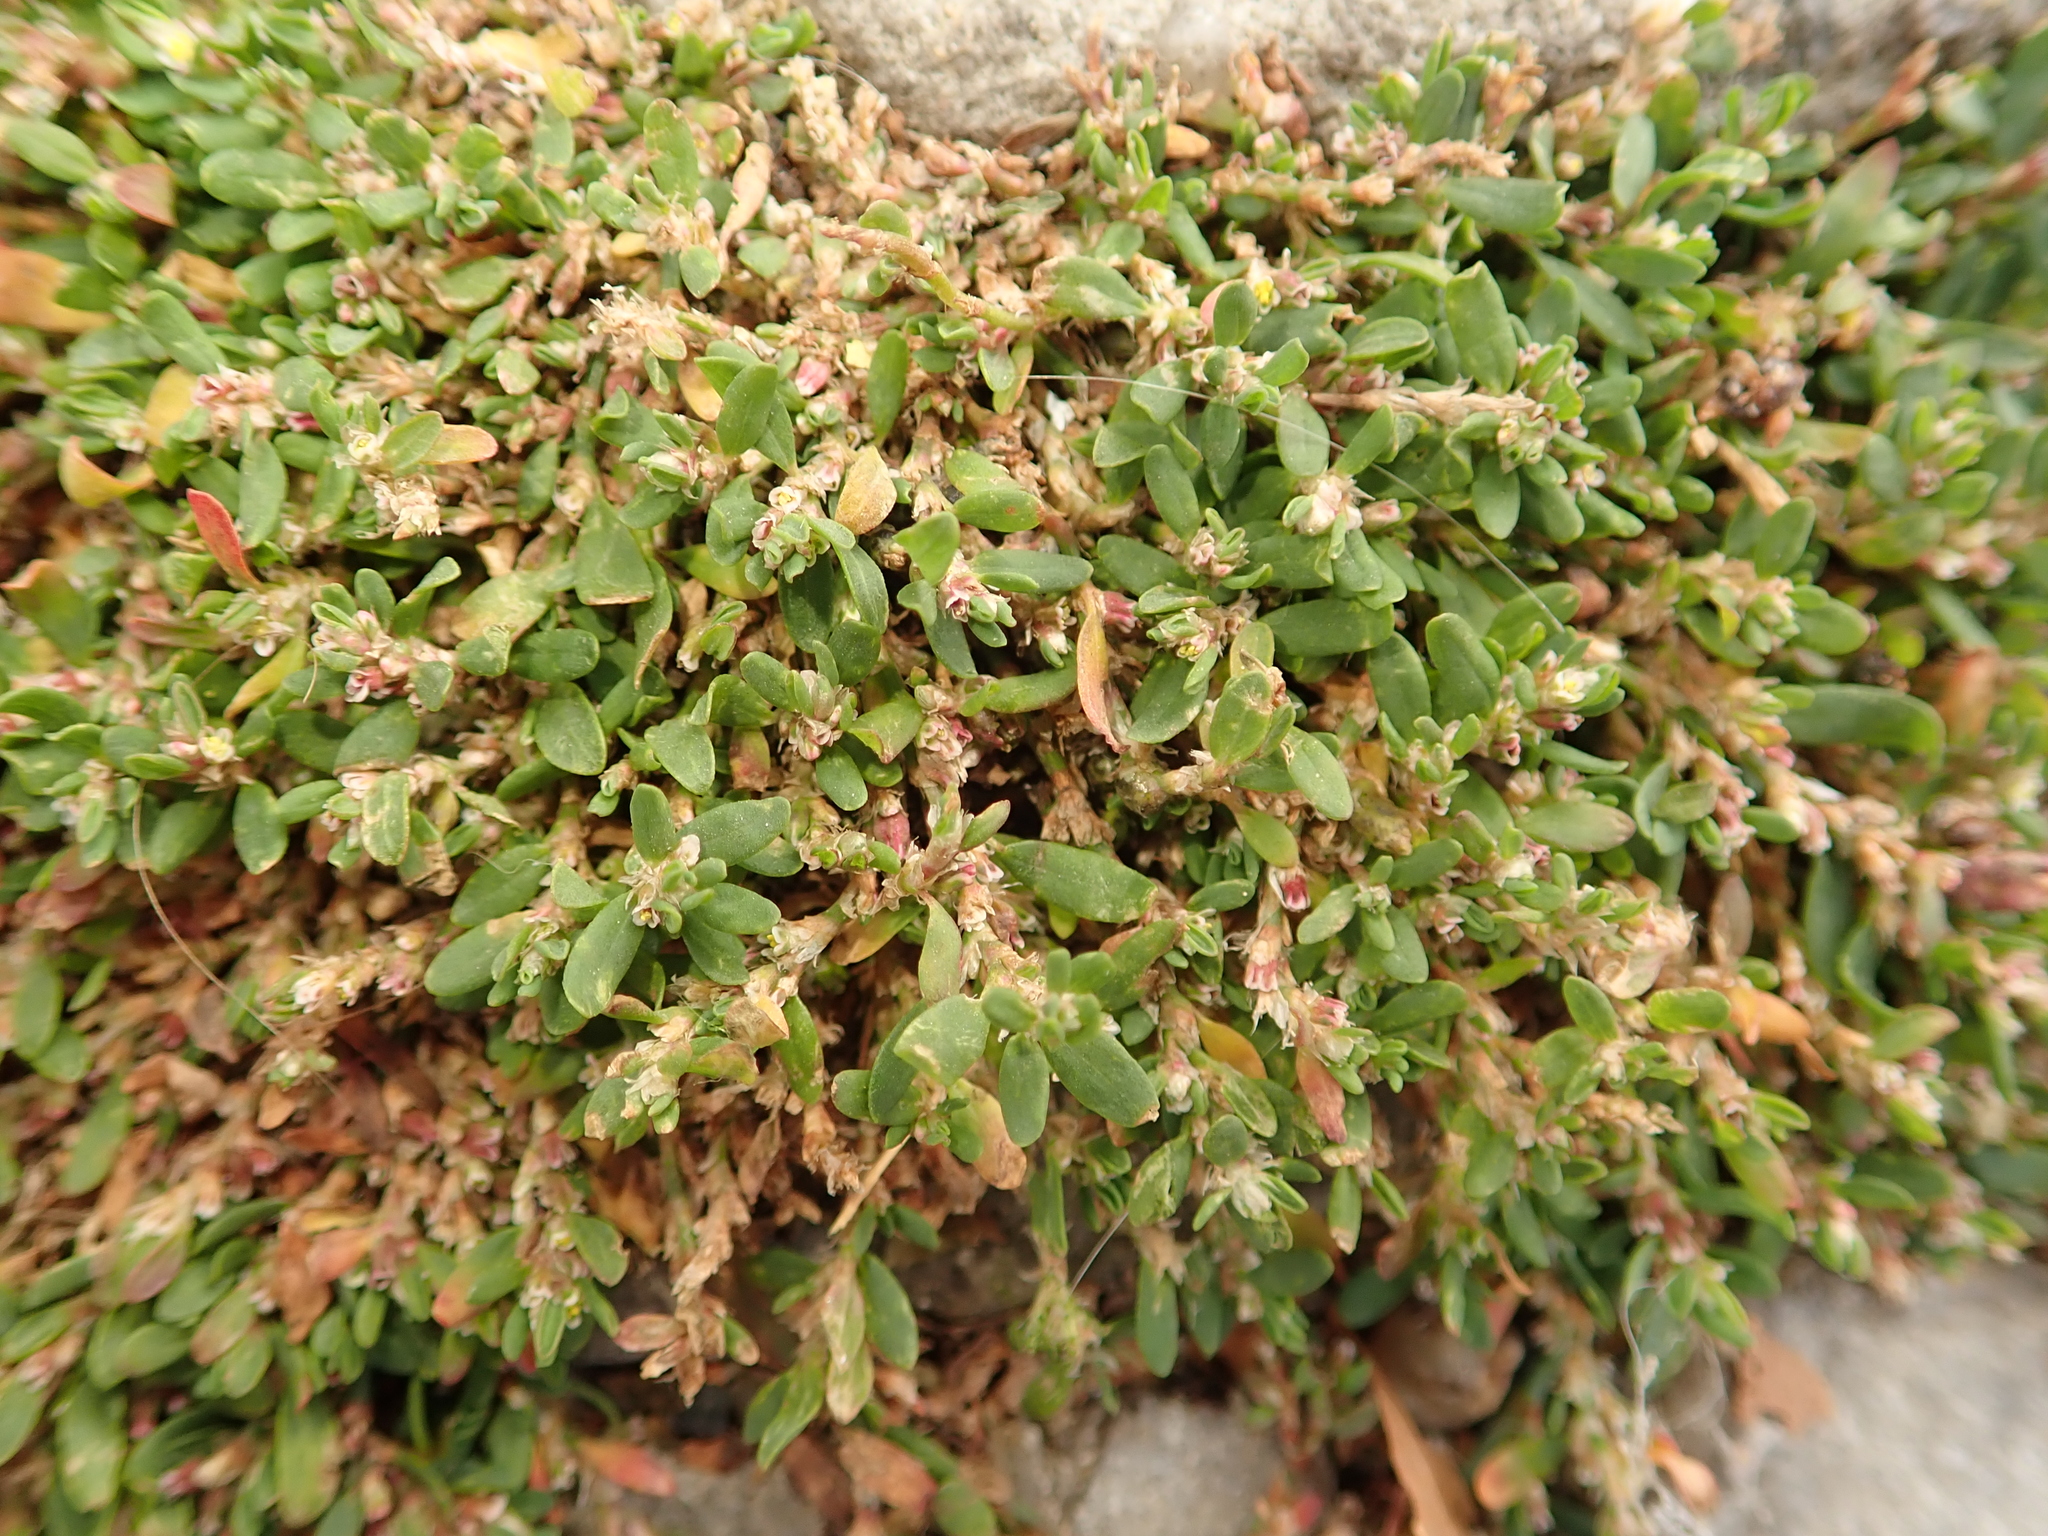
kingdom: Plantae
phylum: Tracheophyta
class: Magnoliopsida
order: Caryophyllales
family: Polygonaceae
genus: Polygonum
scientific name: Polygonum arenastrum
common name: Equal-leaved knotgrass
